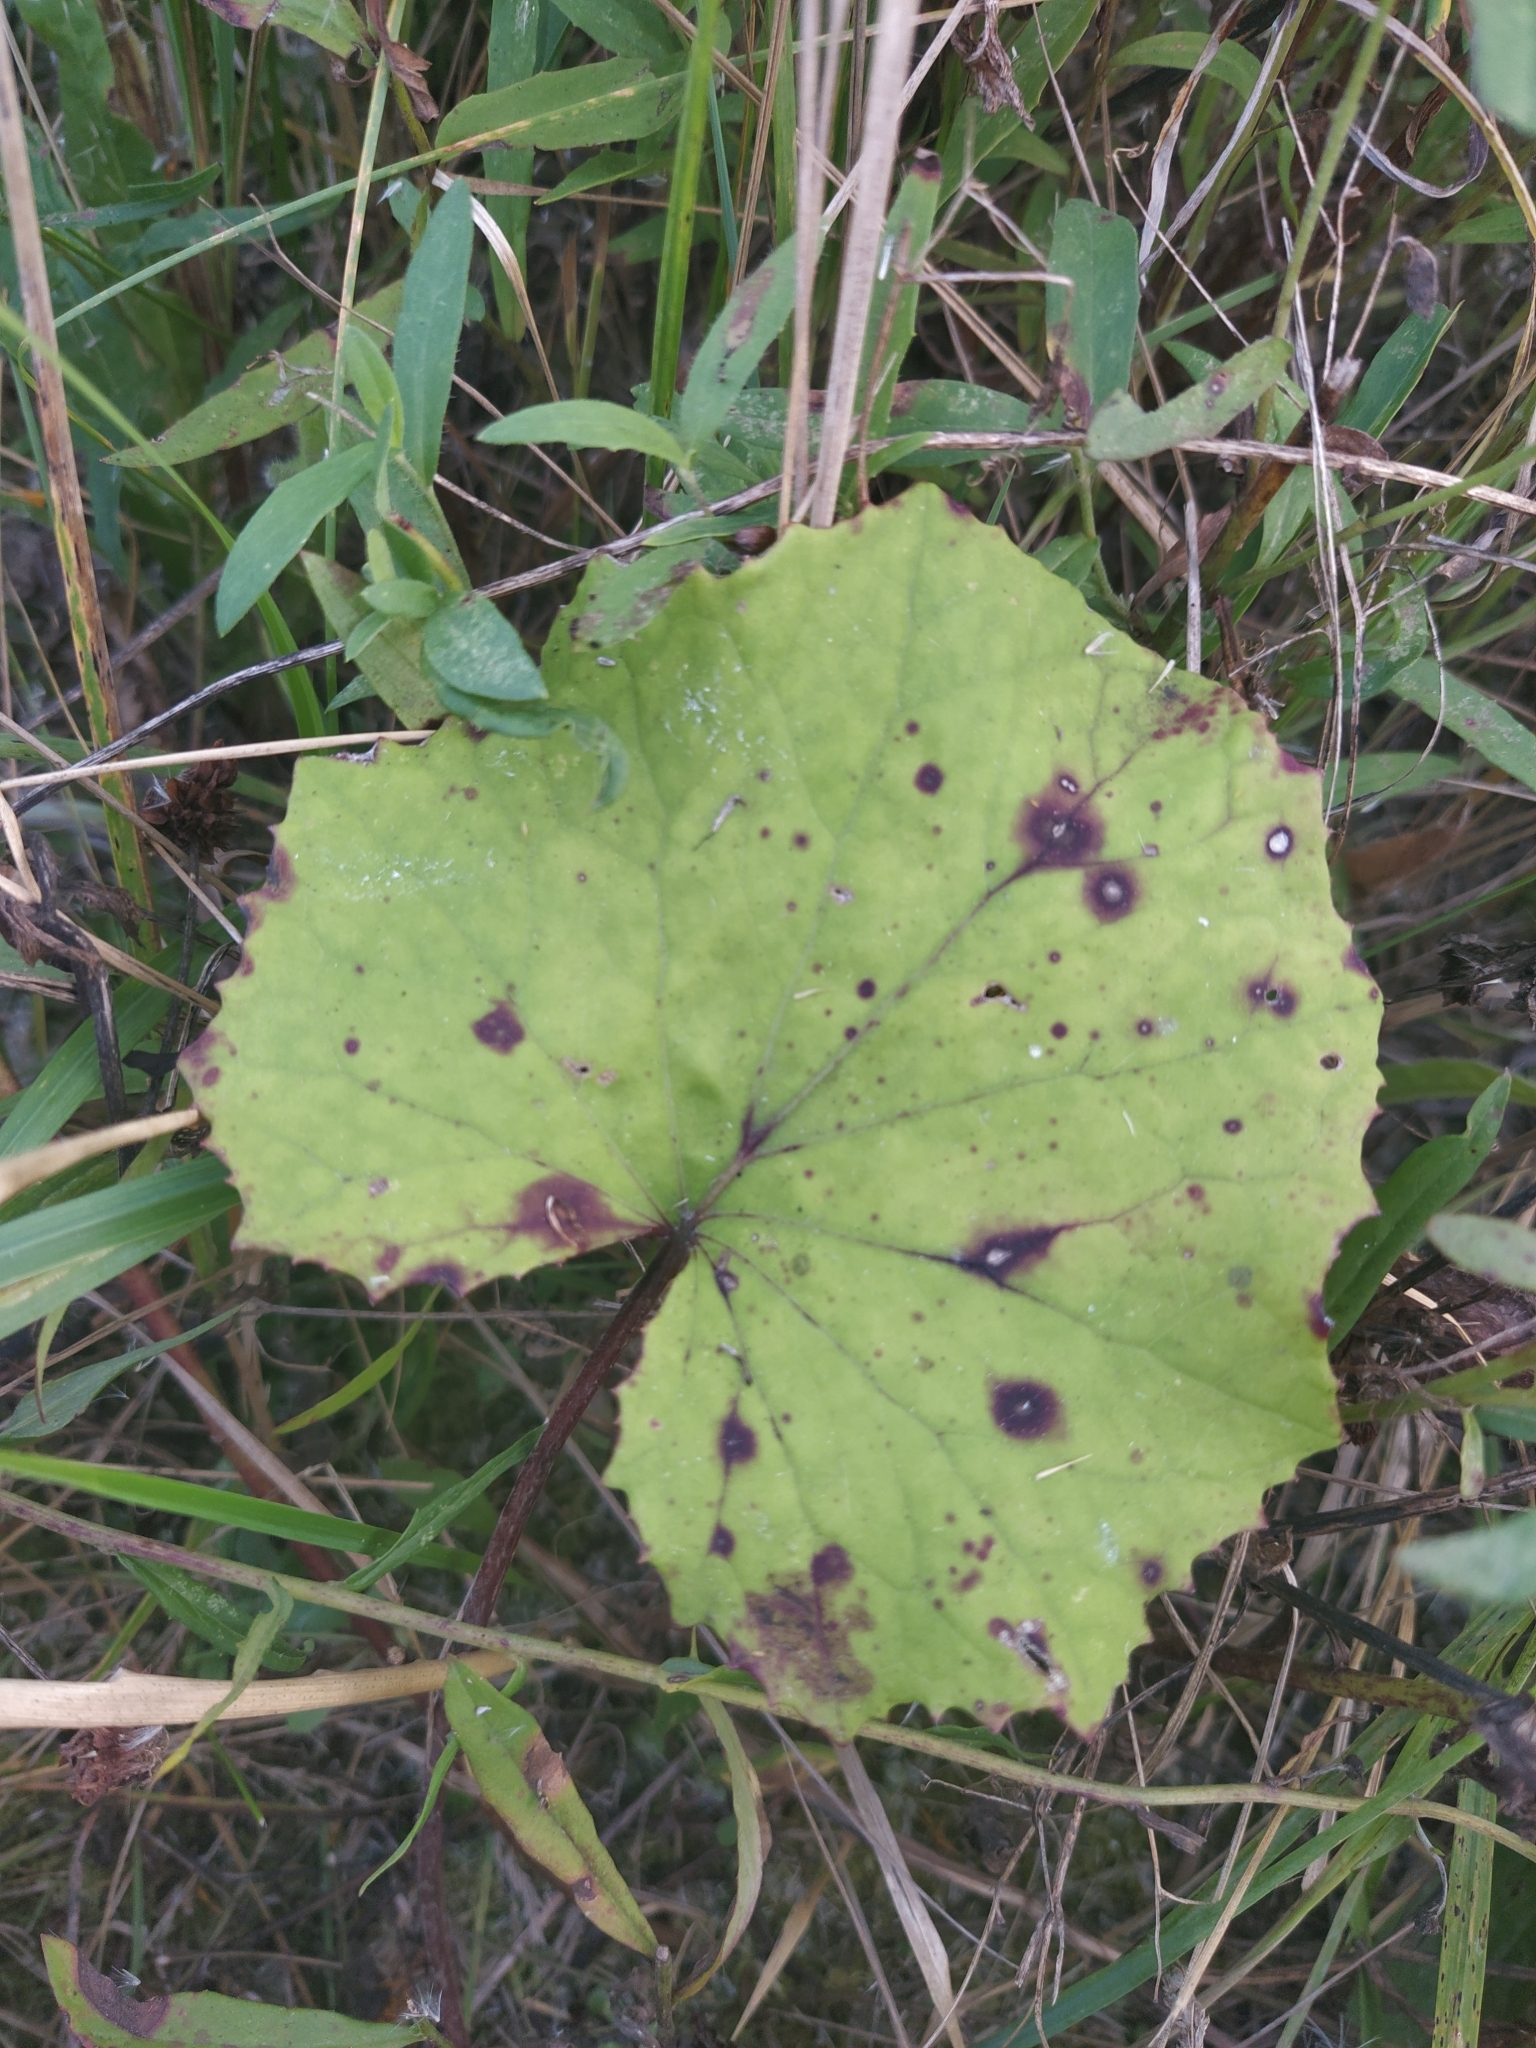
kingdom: Plantae
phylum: Tracheophyta
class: Magnoliopsida
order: Asterales
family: Asteraceae
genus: Tussilago
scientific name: Tussilago farfara
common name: Coltsfoot
